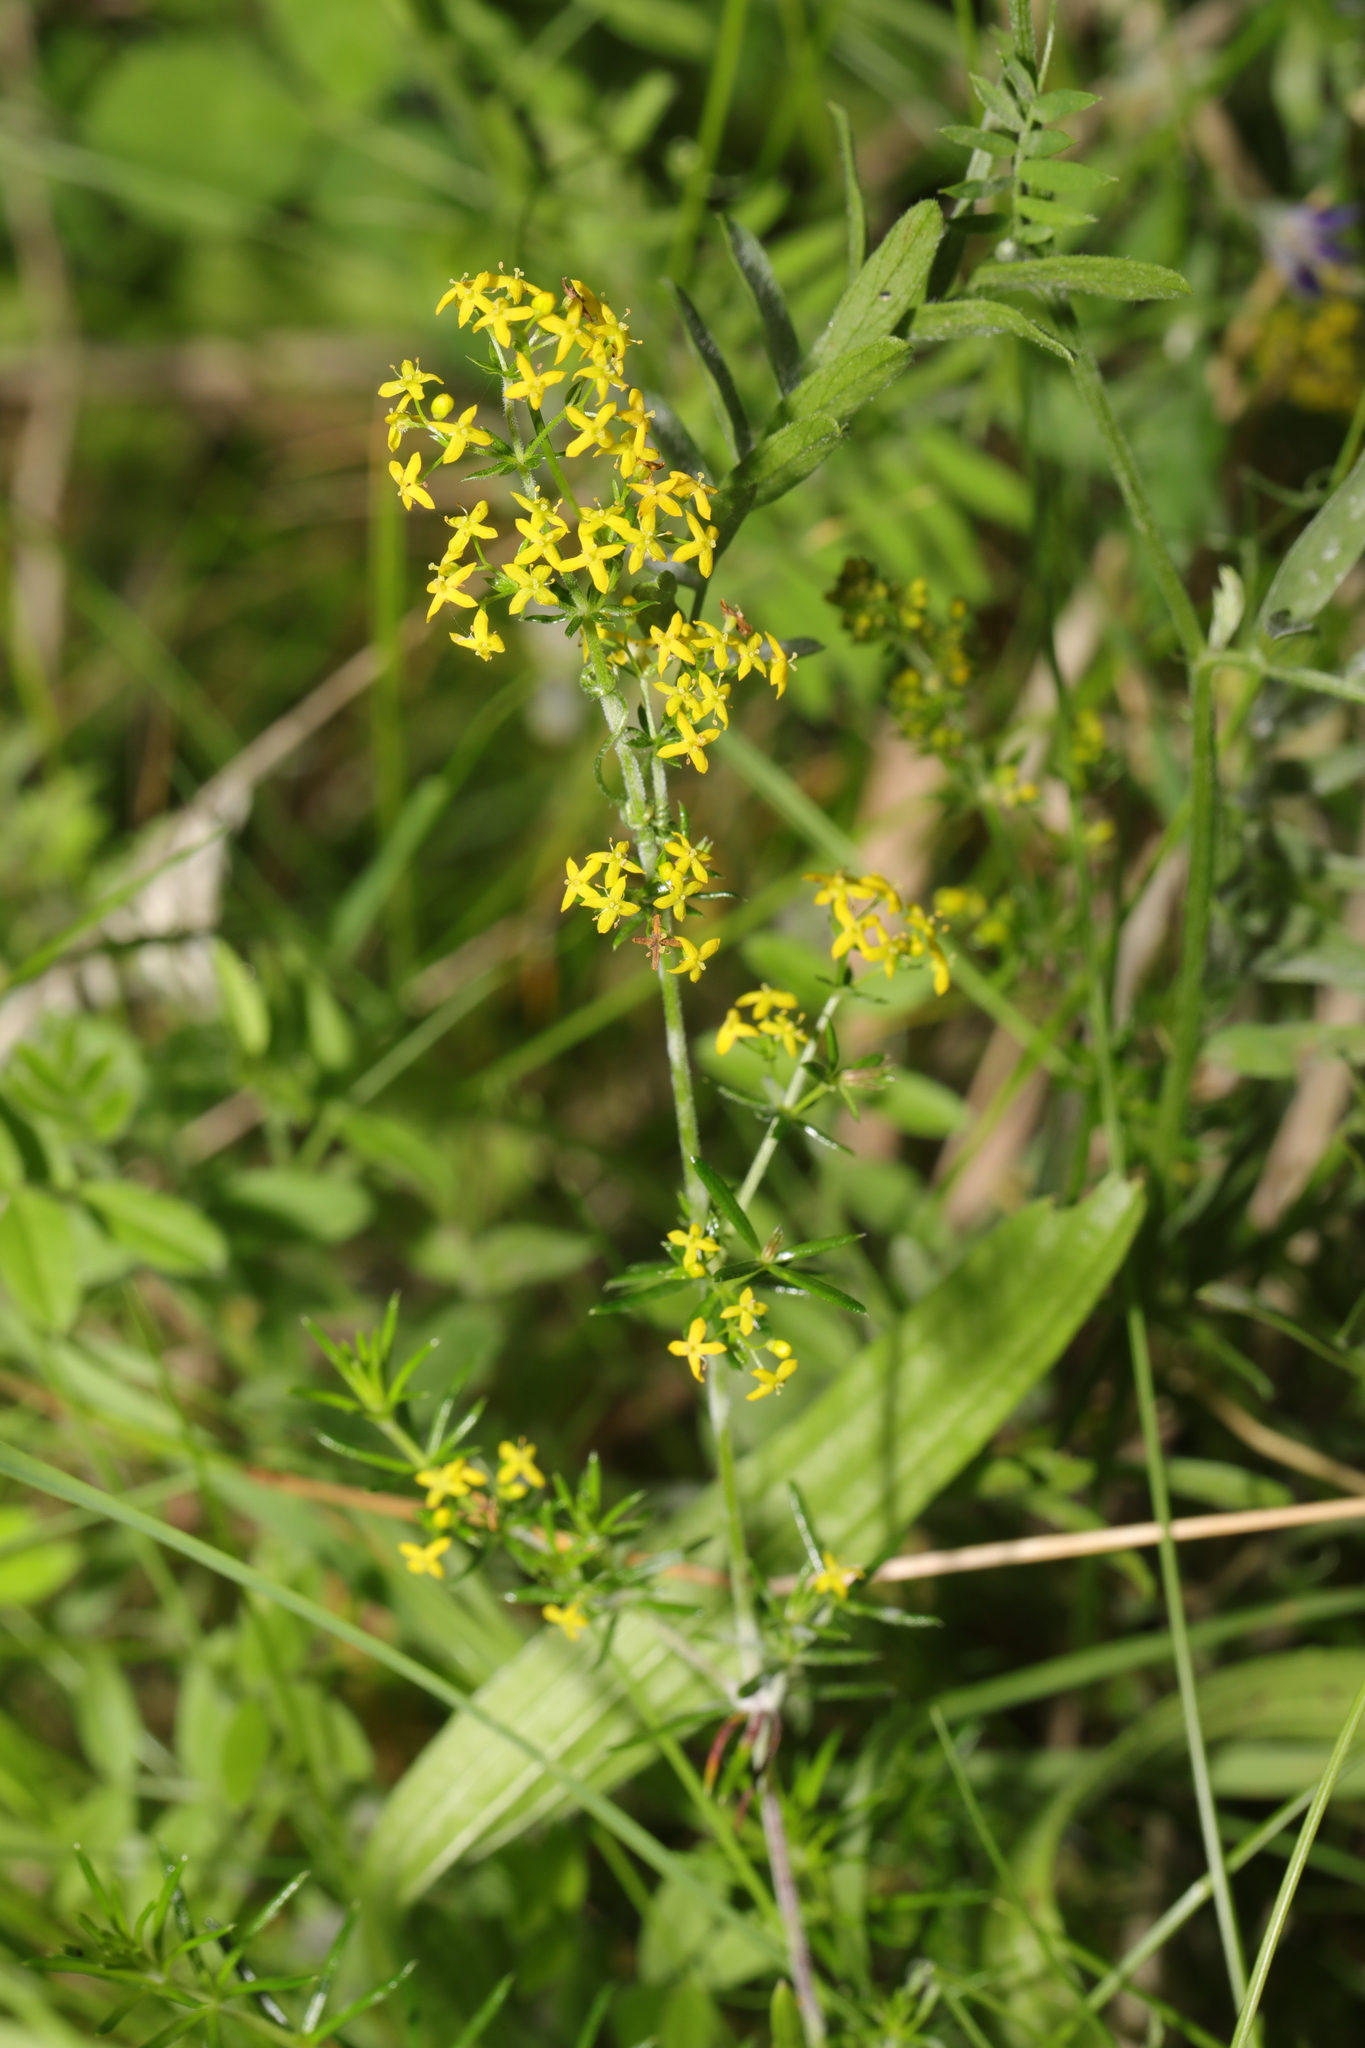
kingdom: Plantae
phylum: Tracheophyta
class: Magnoliopsida
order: Gentianales
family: Rubiaceae
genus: Galium
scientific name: Galium verum
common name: Lady's bedstraw
